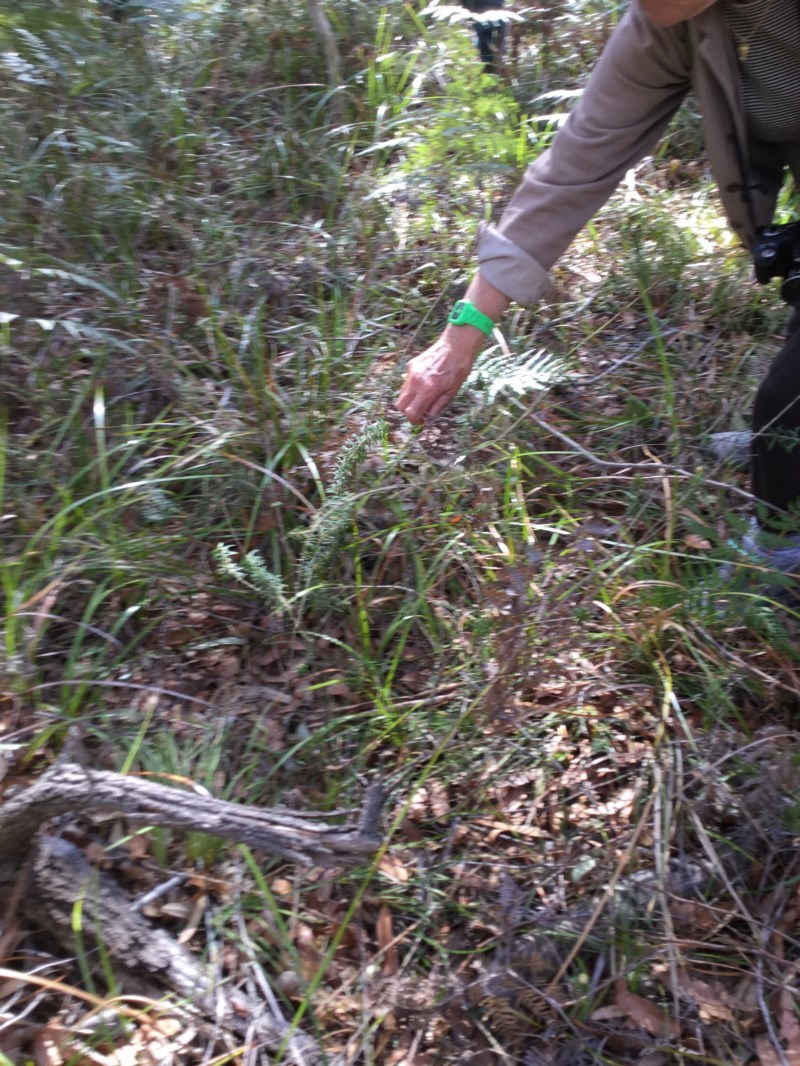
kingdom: Plantae
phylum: Tracheophyta
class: Magnoliopsida
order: Apiales
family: Araliaceae
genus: Astrotricha
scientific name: Astrotricha
